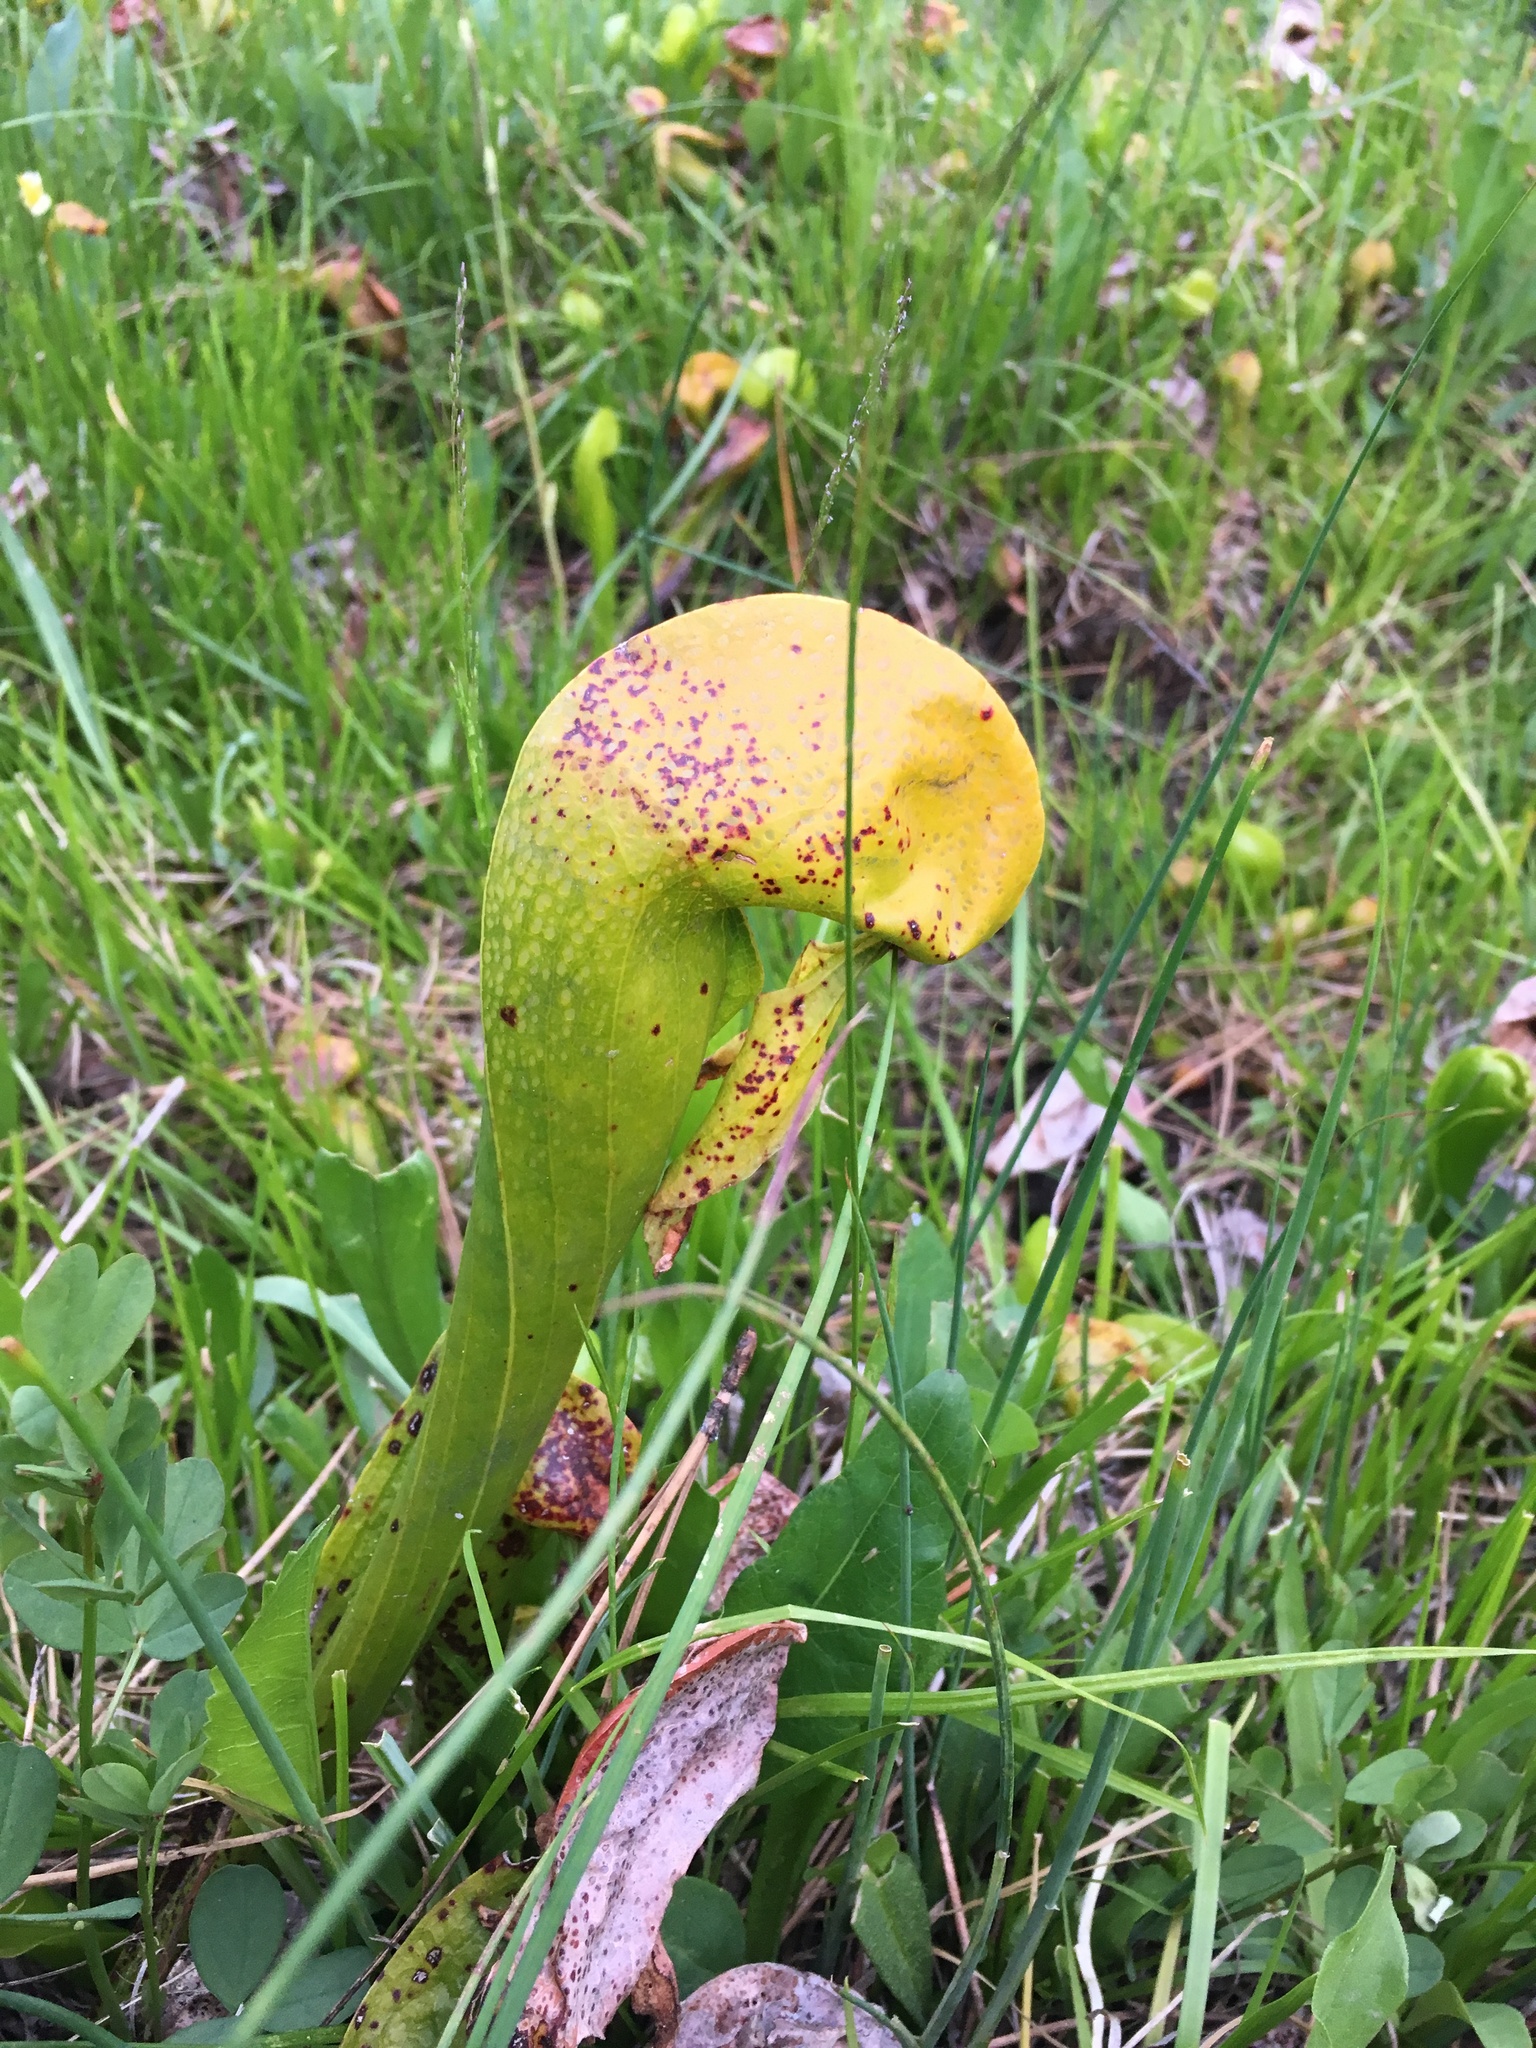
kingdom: Plantae
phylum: Tracheophyta
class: Magnoliopsida
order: Ericales
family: Sarraceniaceae
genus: Darlingtonia
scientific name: Darlingtonia californica
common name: California pitcher plant
